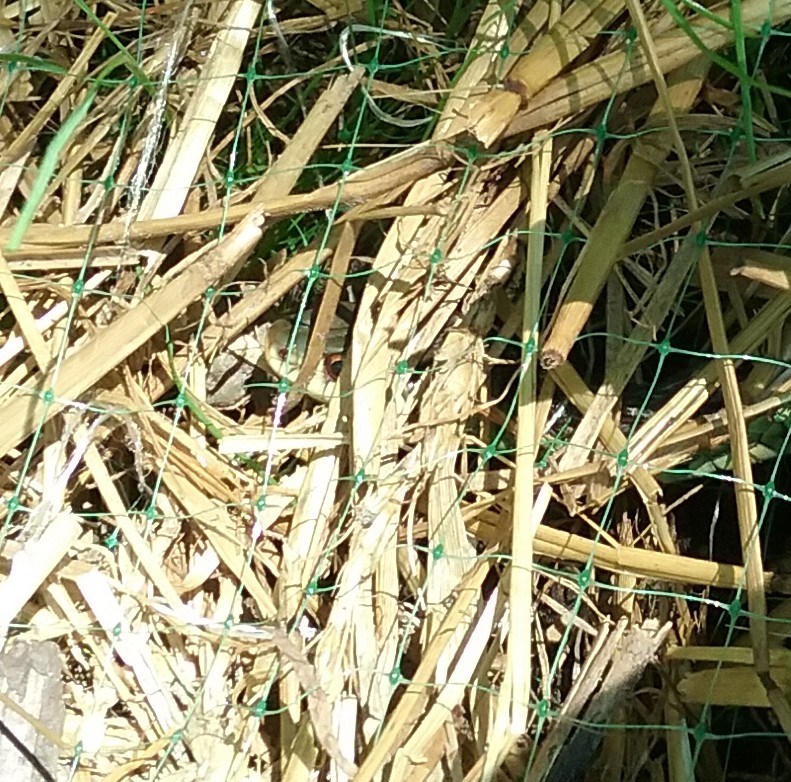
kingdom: Animalia
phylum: Chordata
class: Squamata
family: Colubridae
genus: Thamnophis
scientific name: Thamnophis sirtalis
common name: Common garter snake
